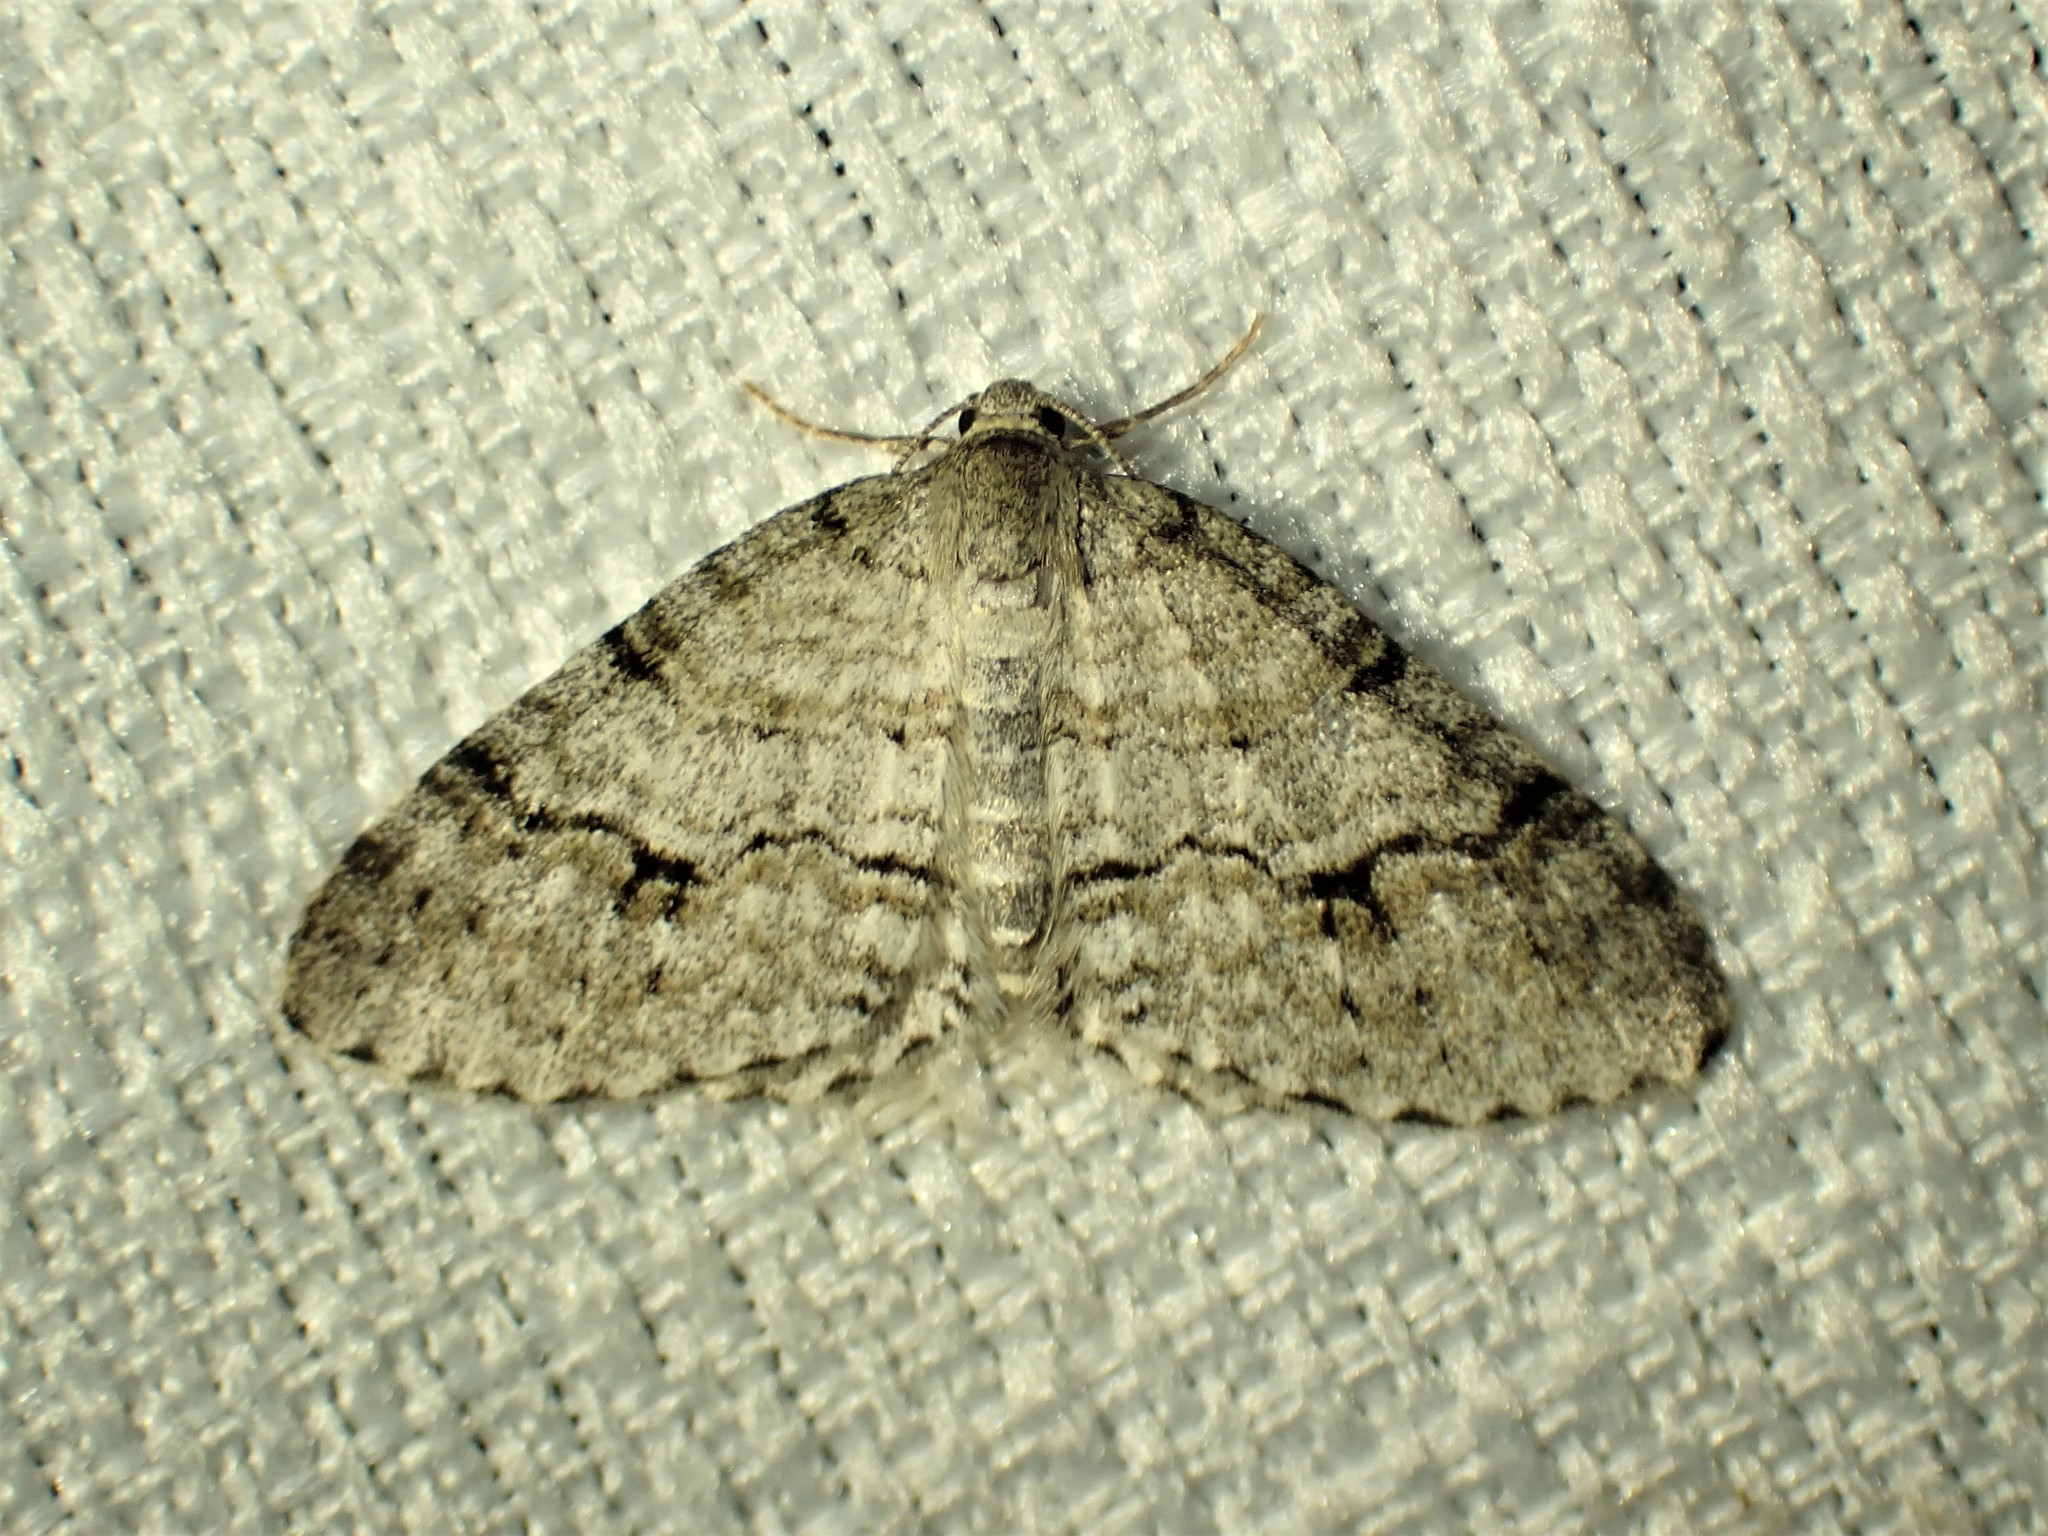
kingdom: Animalia
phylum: Arthropoda
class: Insecta
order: Lepidoptera
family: Geometridae
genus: Venusia
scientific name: Venusia cambrica
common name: Welsh wave
